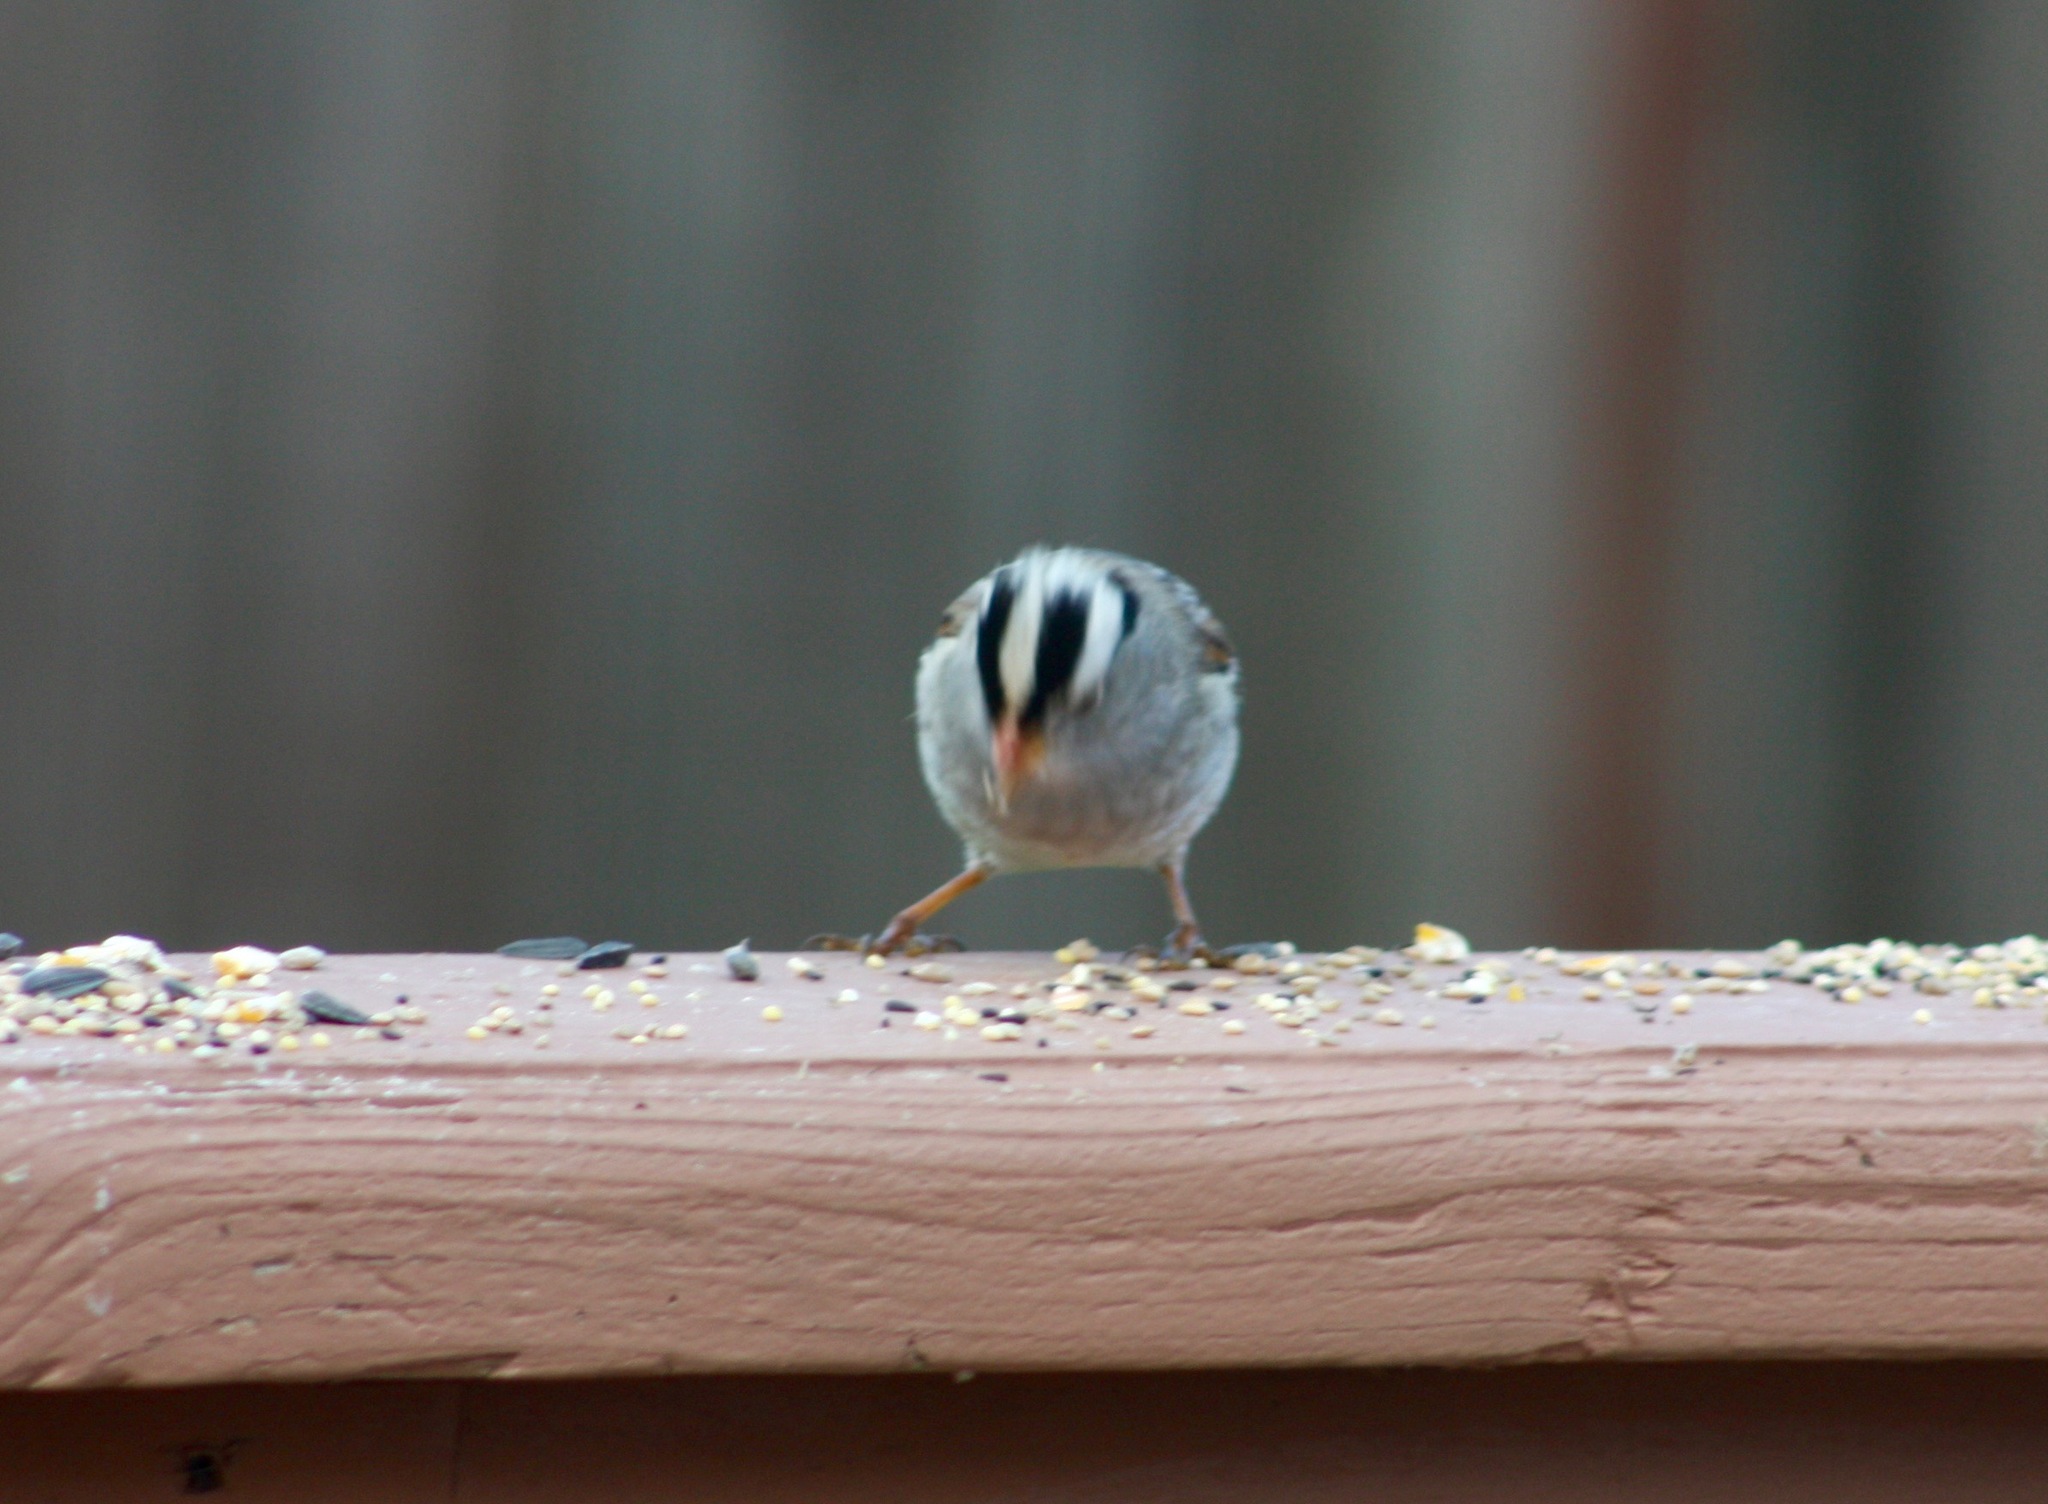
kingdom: Animalia
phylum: Chordata
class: Aves
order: Passeriformes
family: Passerellidae
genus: Zonotrichia
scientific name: Zonotrichia leucophrys
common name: White-crowned sparrow
